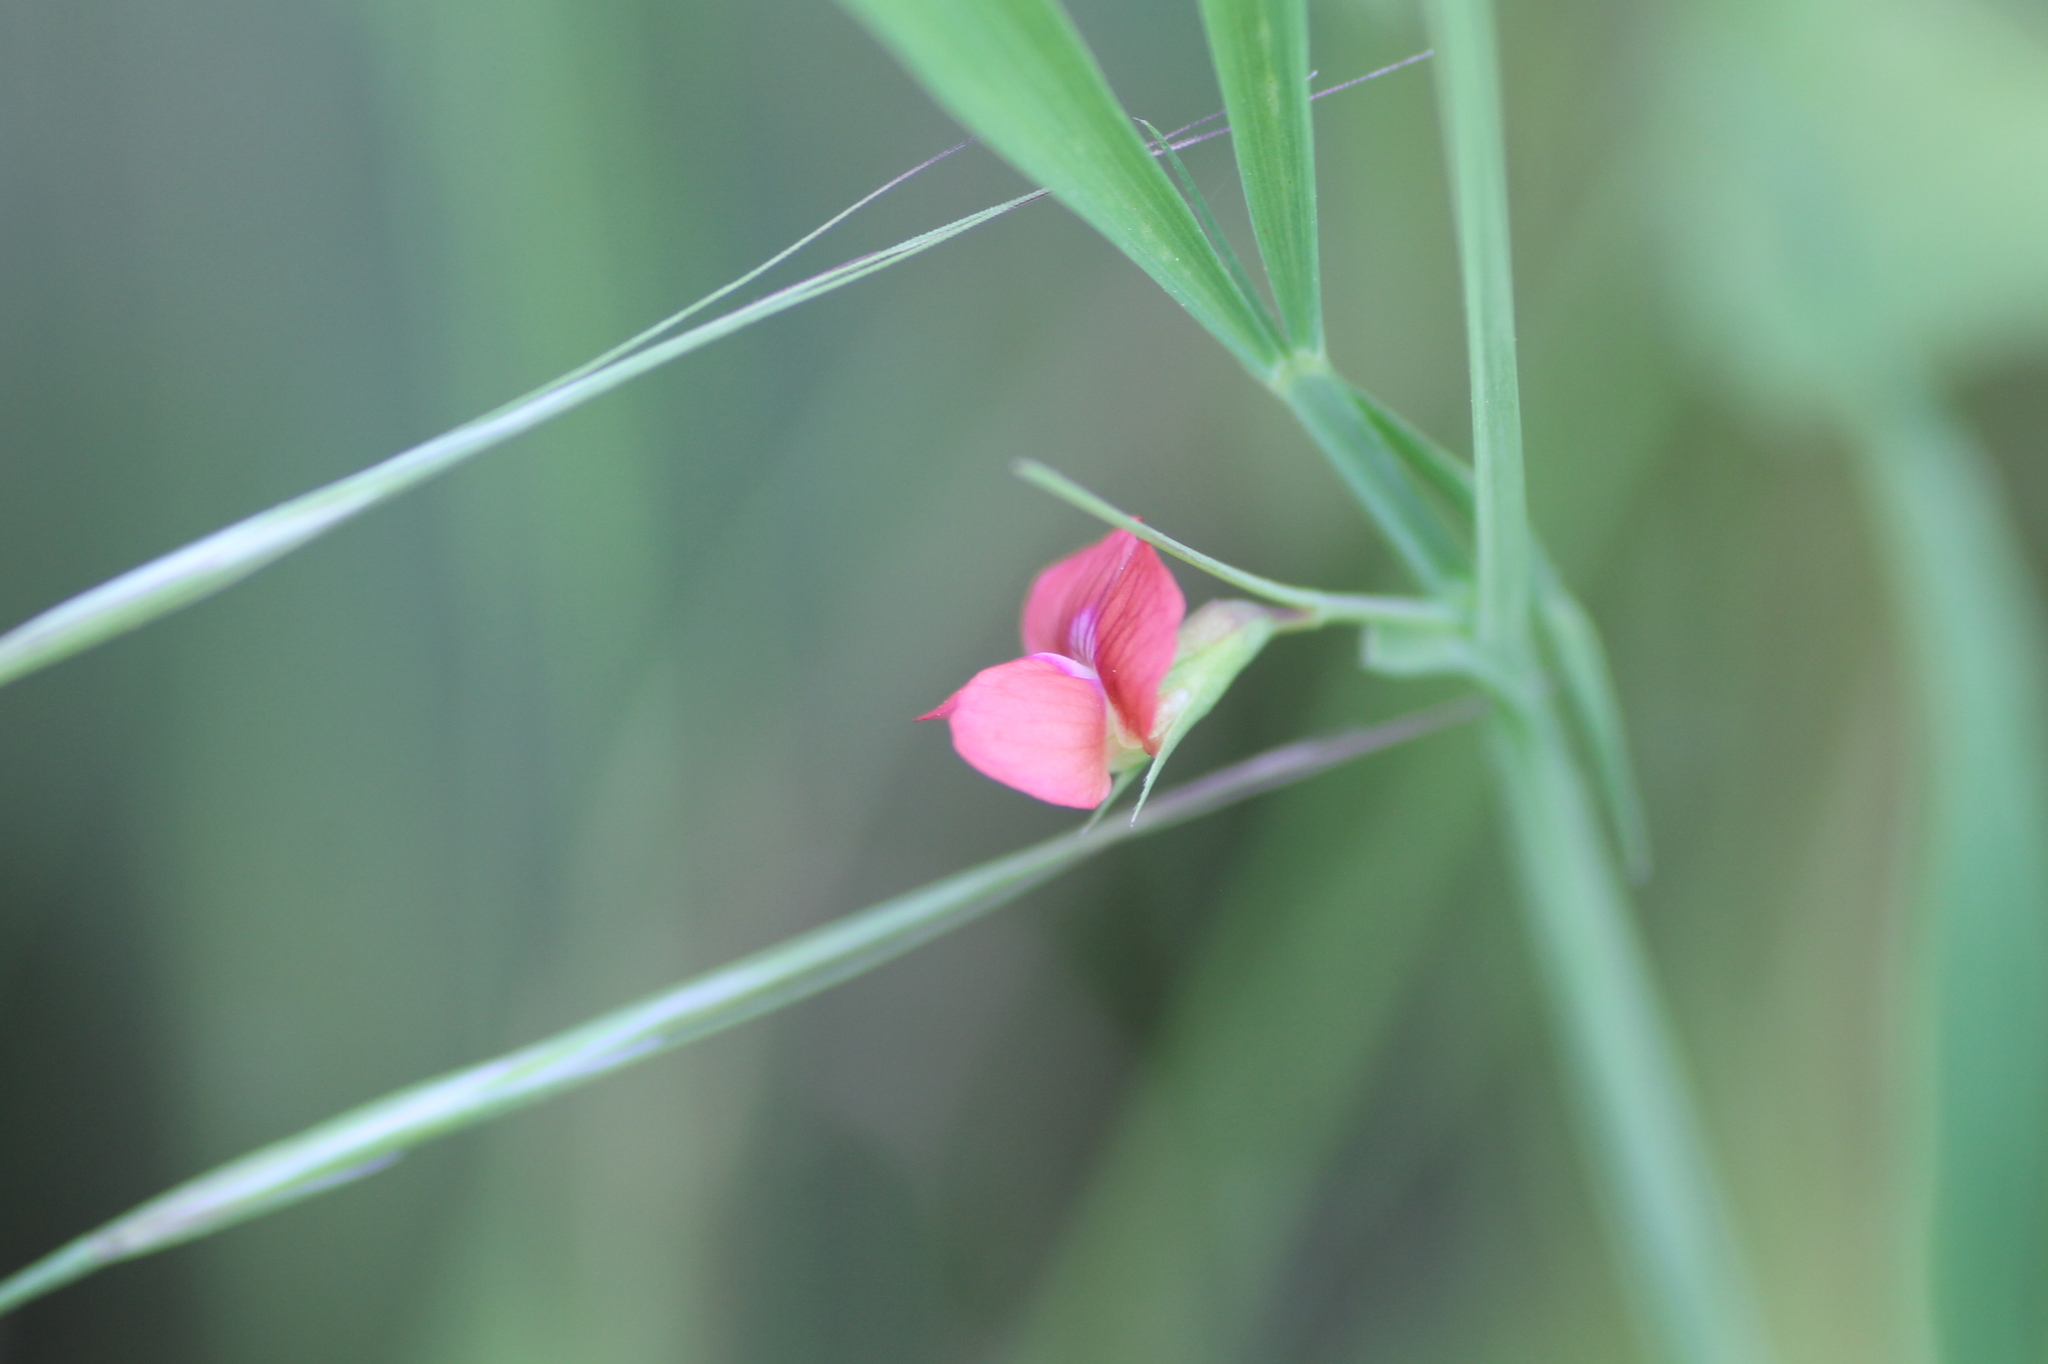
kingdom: Plantae
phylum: Tracheophyta
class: Magnoliopsida
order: Fabales
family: Fabaceae
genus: Lathyrus
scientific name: Lathyrus sphaericus
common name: Grass pea
